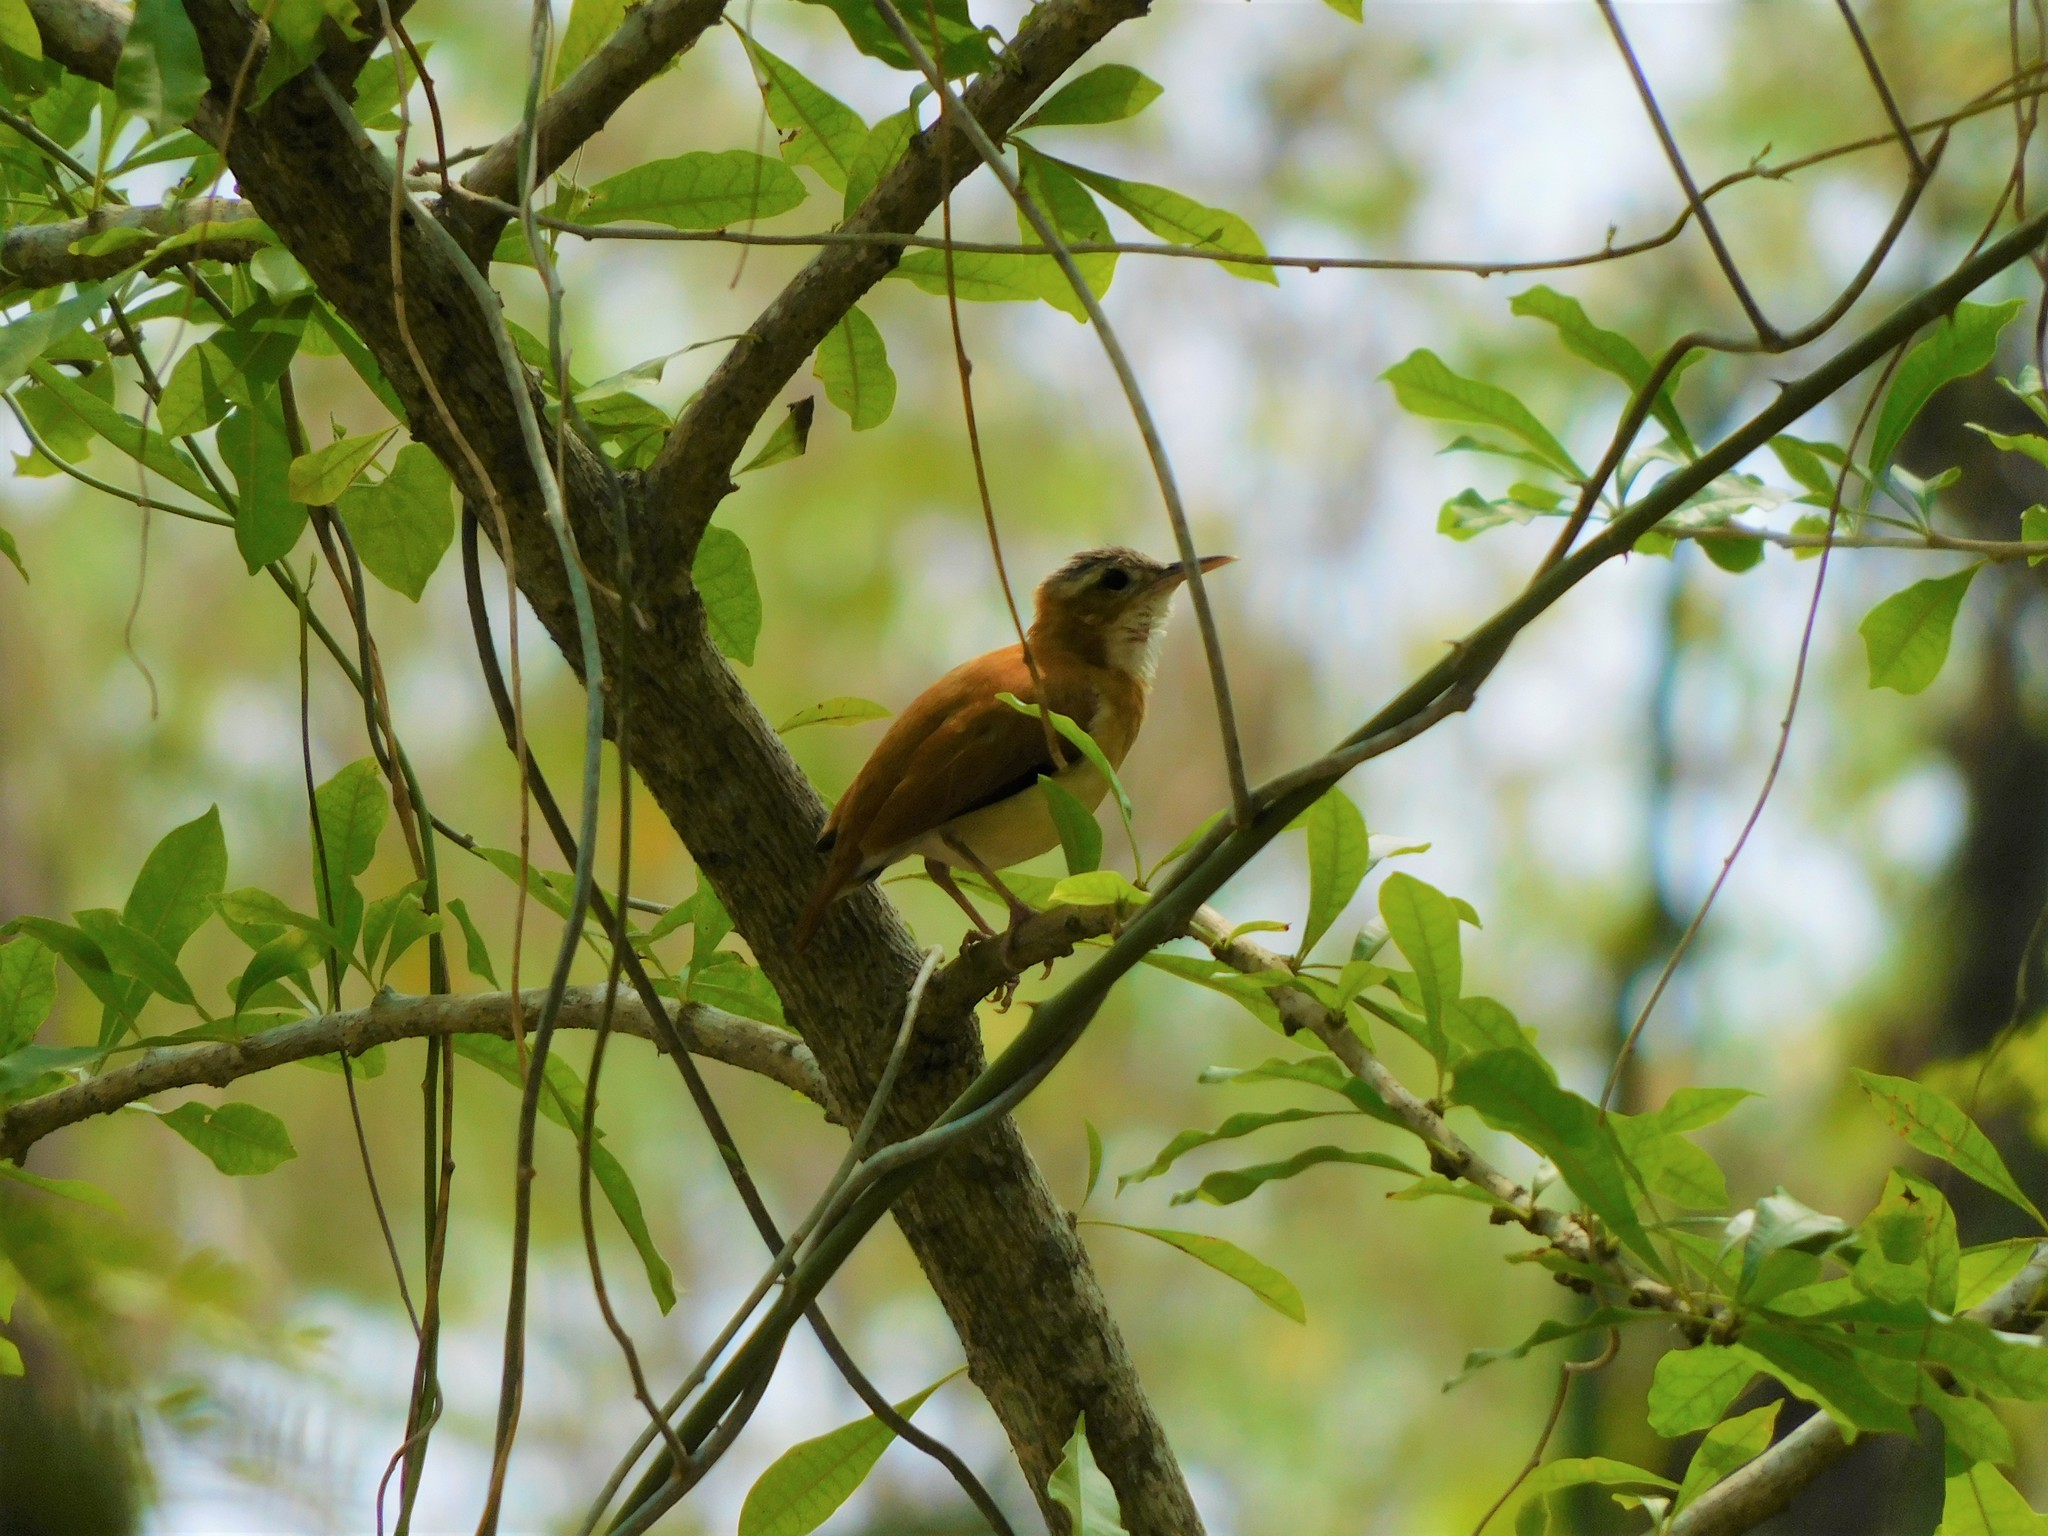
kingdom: Animalia
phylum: Chordata
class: Aves
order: Passeriformes
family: Furnariidae
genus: Furnarius
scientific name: Furnarius longirostris
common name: Caribbean hornero
